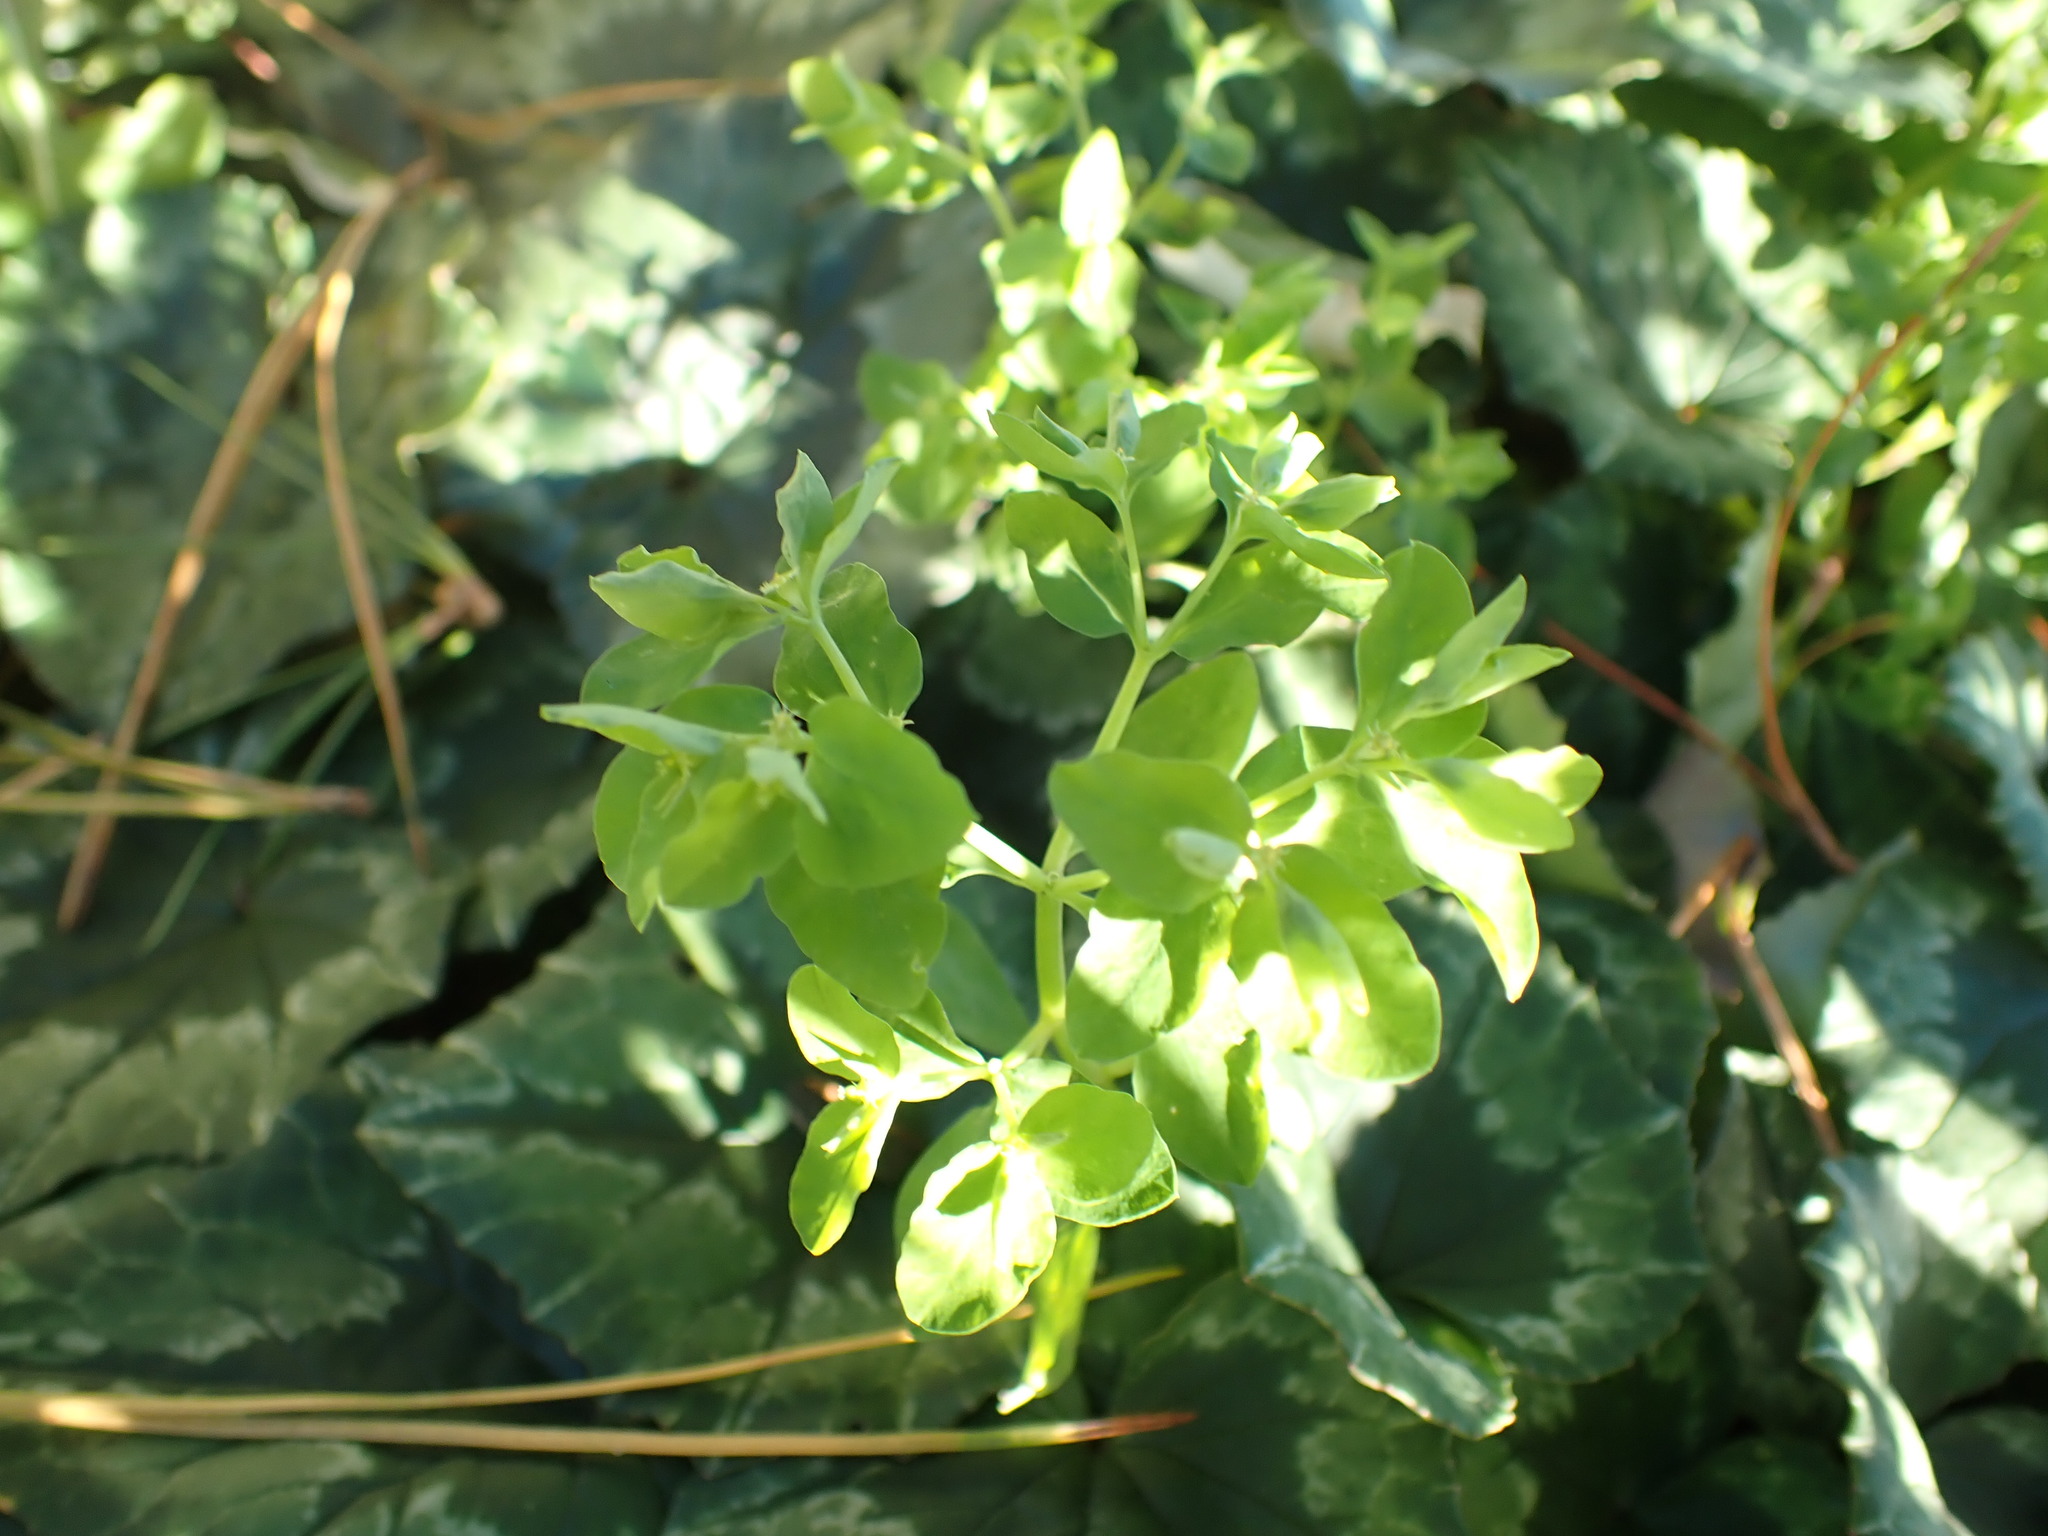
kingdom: Plantae
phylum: Tracheophyta
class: Magnoliopsida
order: Malpighiales
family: Euphorbiaceae
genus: Euphorbia
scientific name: Euphorbia peplus
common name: Petty spurge
